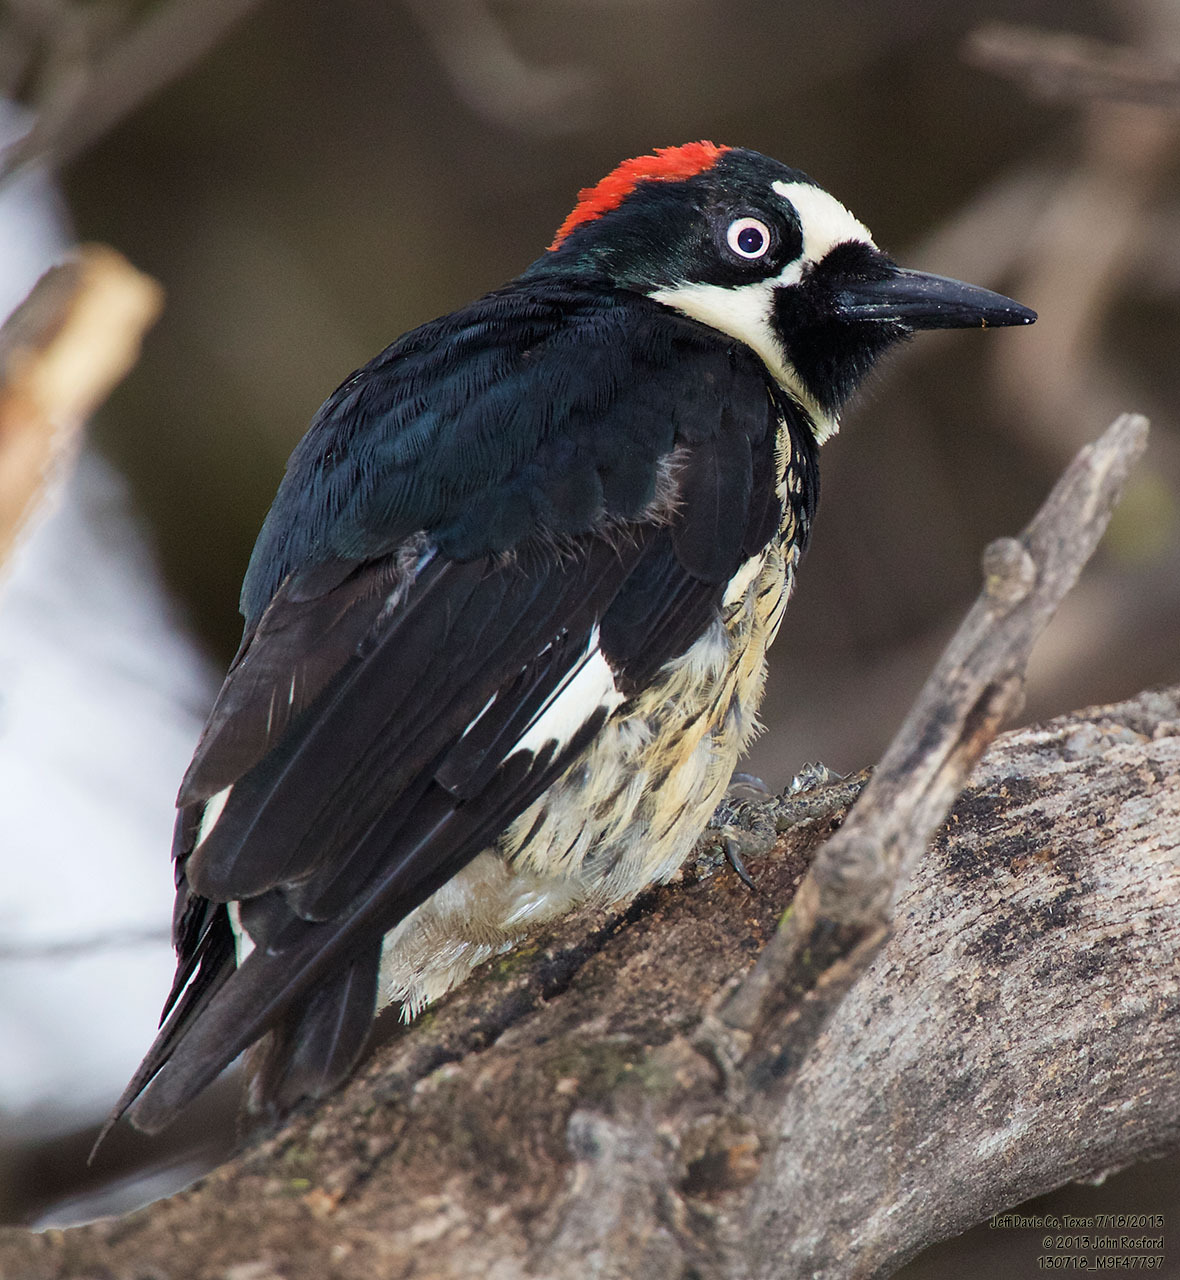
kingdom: Animalia
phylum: Chordata
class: Aves
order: Piciformes
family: Picidae
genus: Melanerpes
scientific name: Melanerpes formicivorus
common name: Acorn woodpecker
